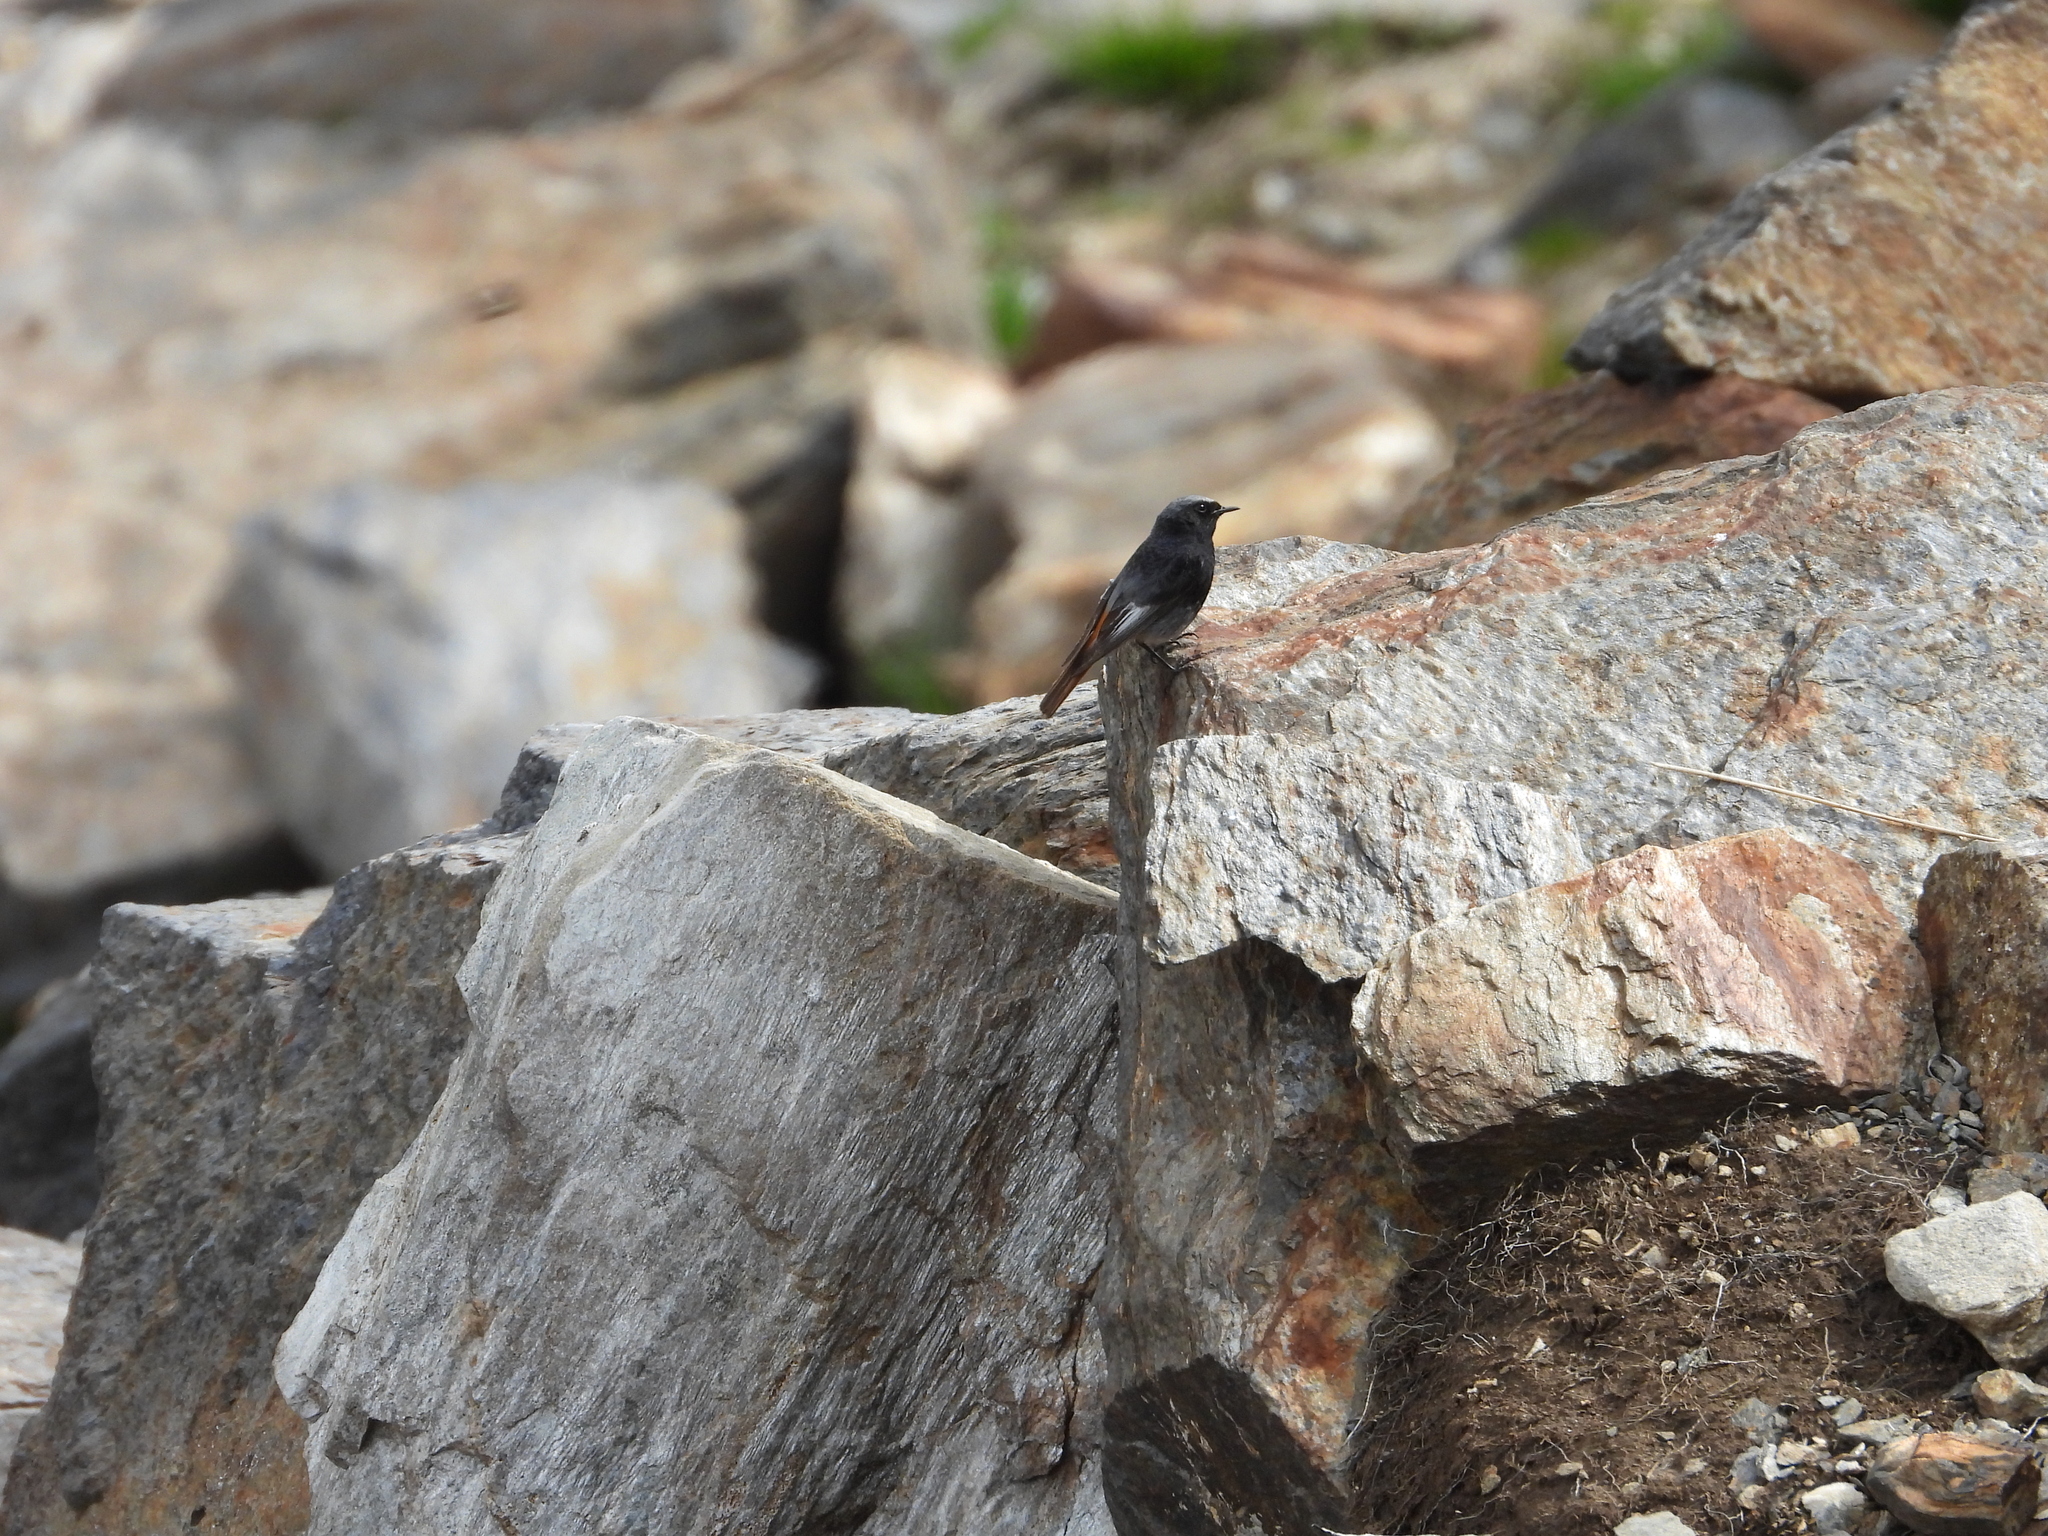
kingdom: Animalia
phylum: Chordata
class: Aves
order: Passeriformes
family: Muscicapidae
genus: Phoenicurus
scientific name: Phoenicurus ochruros
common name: Black redstart
